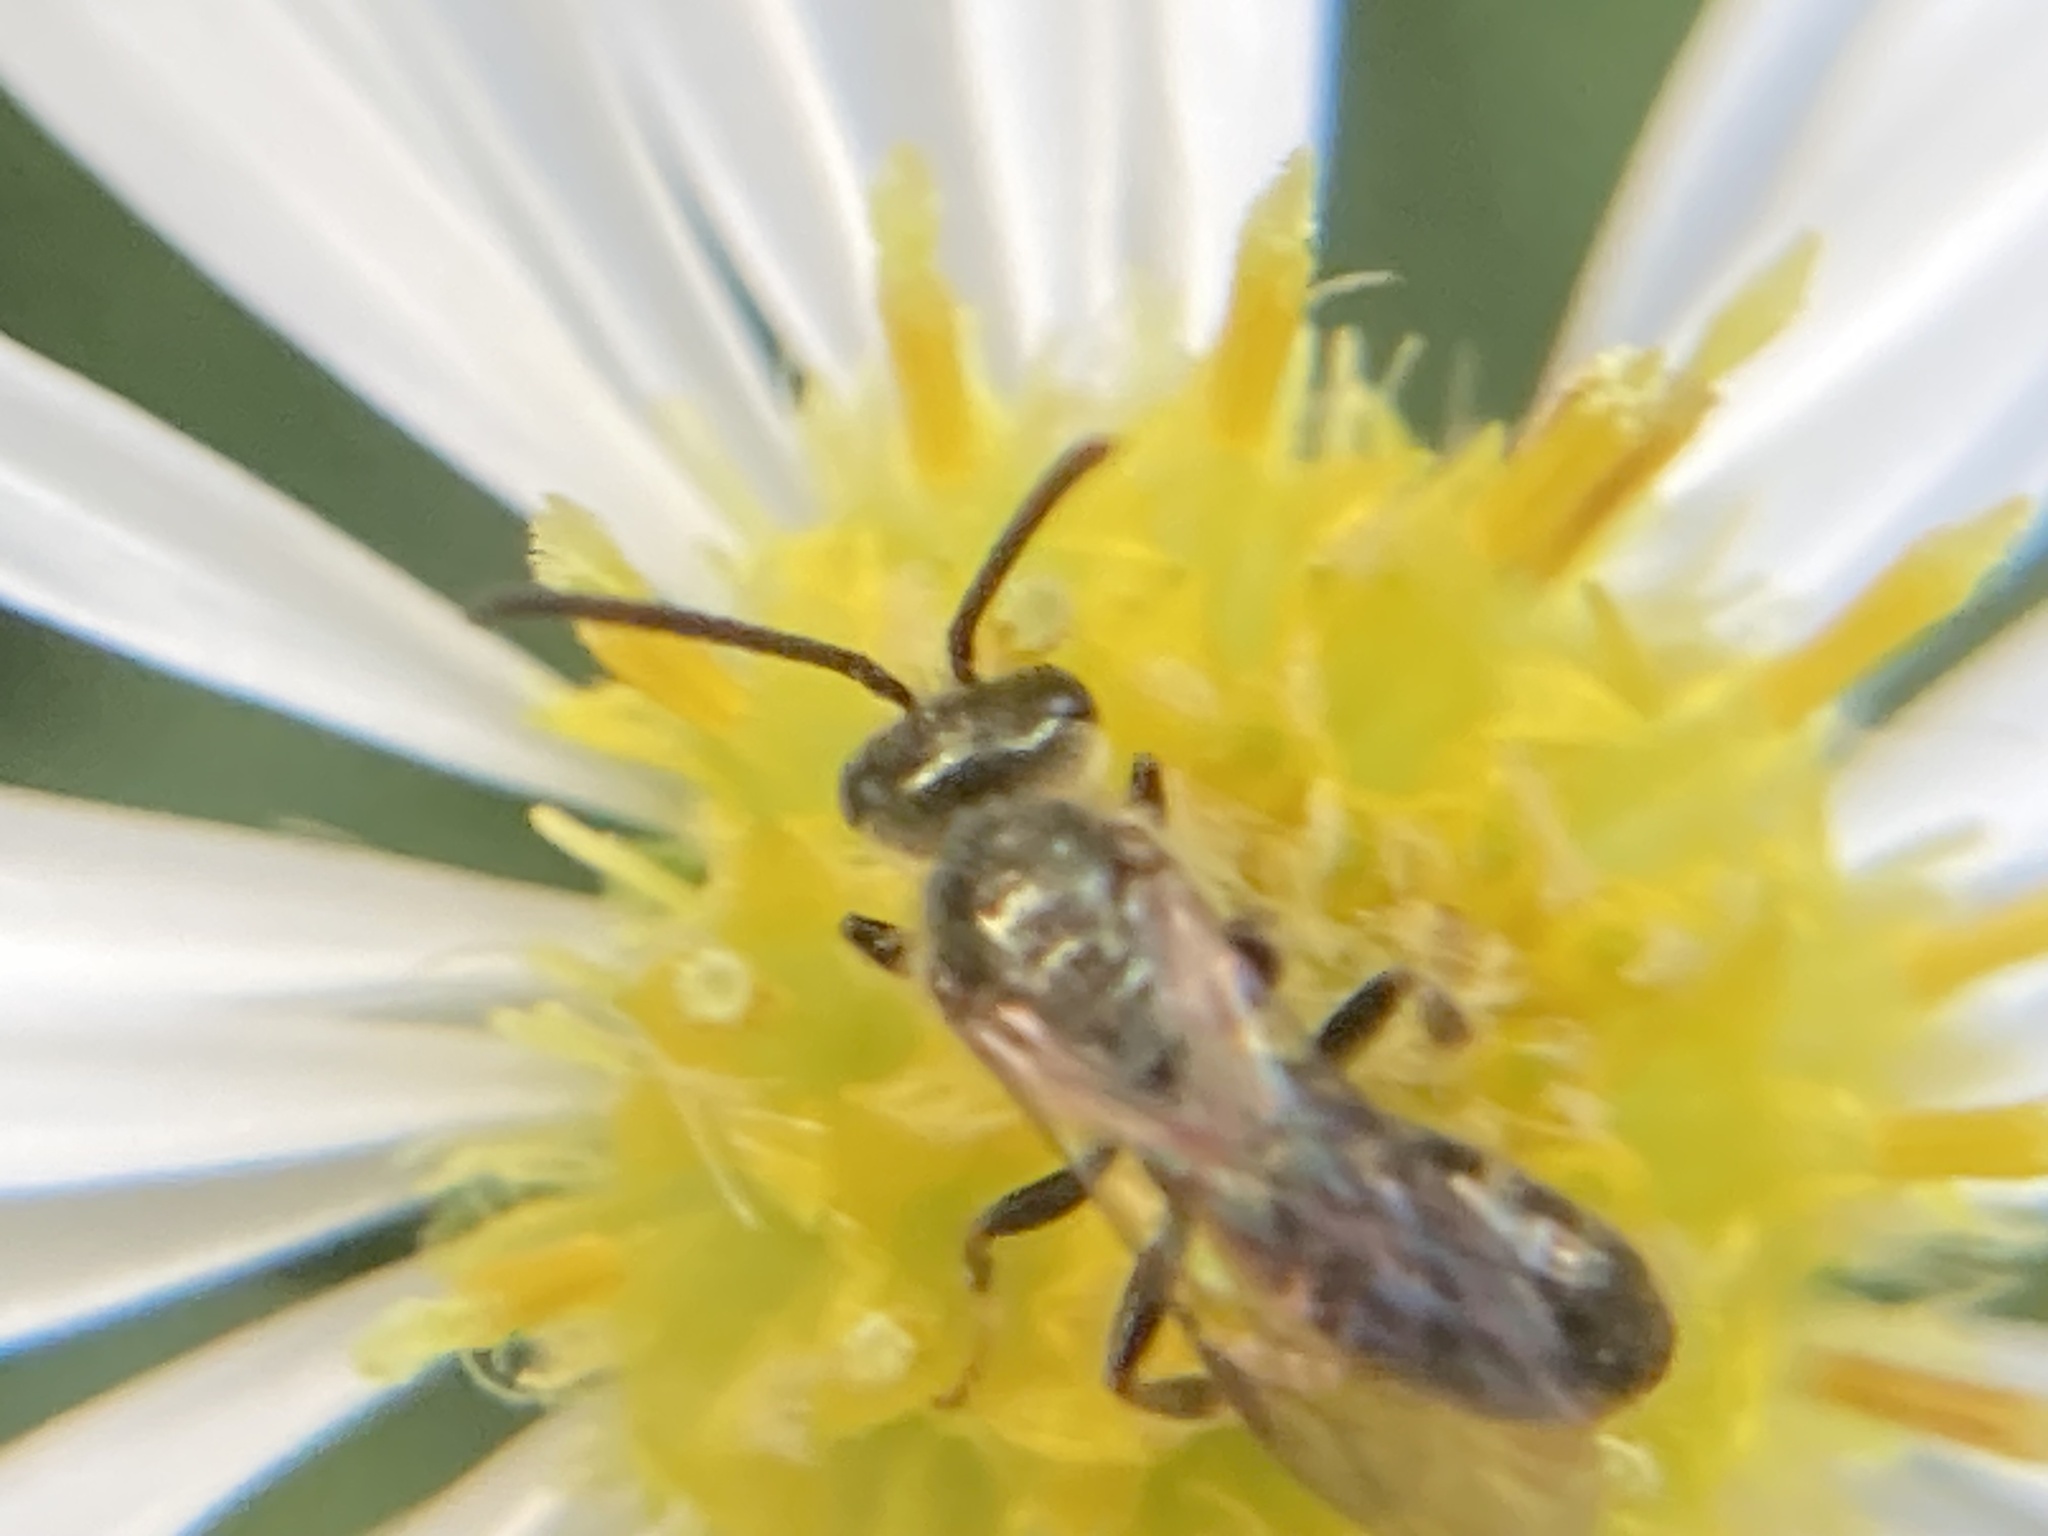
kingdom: Animalia
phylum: Arthropoda
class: Insecta
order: Hymenoptera
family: Halictidae
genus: Dialictus
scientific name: Dialictus
